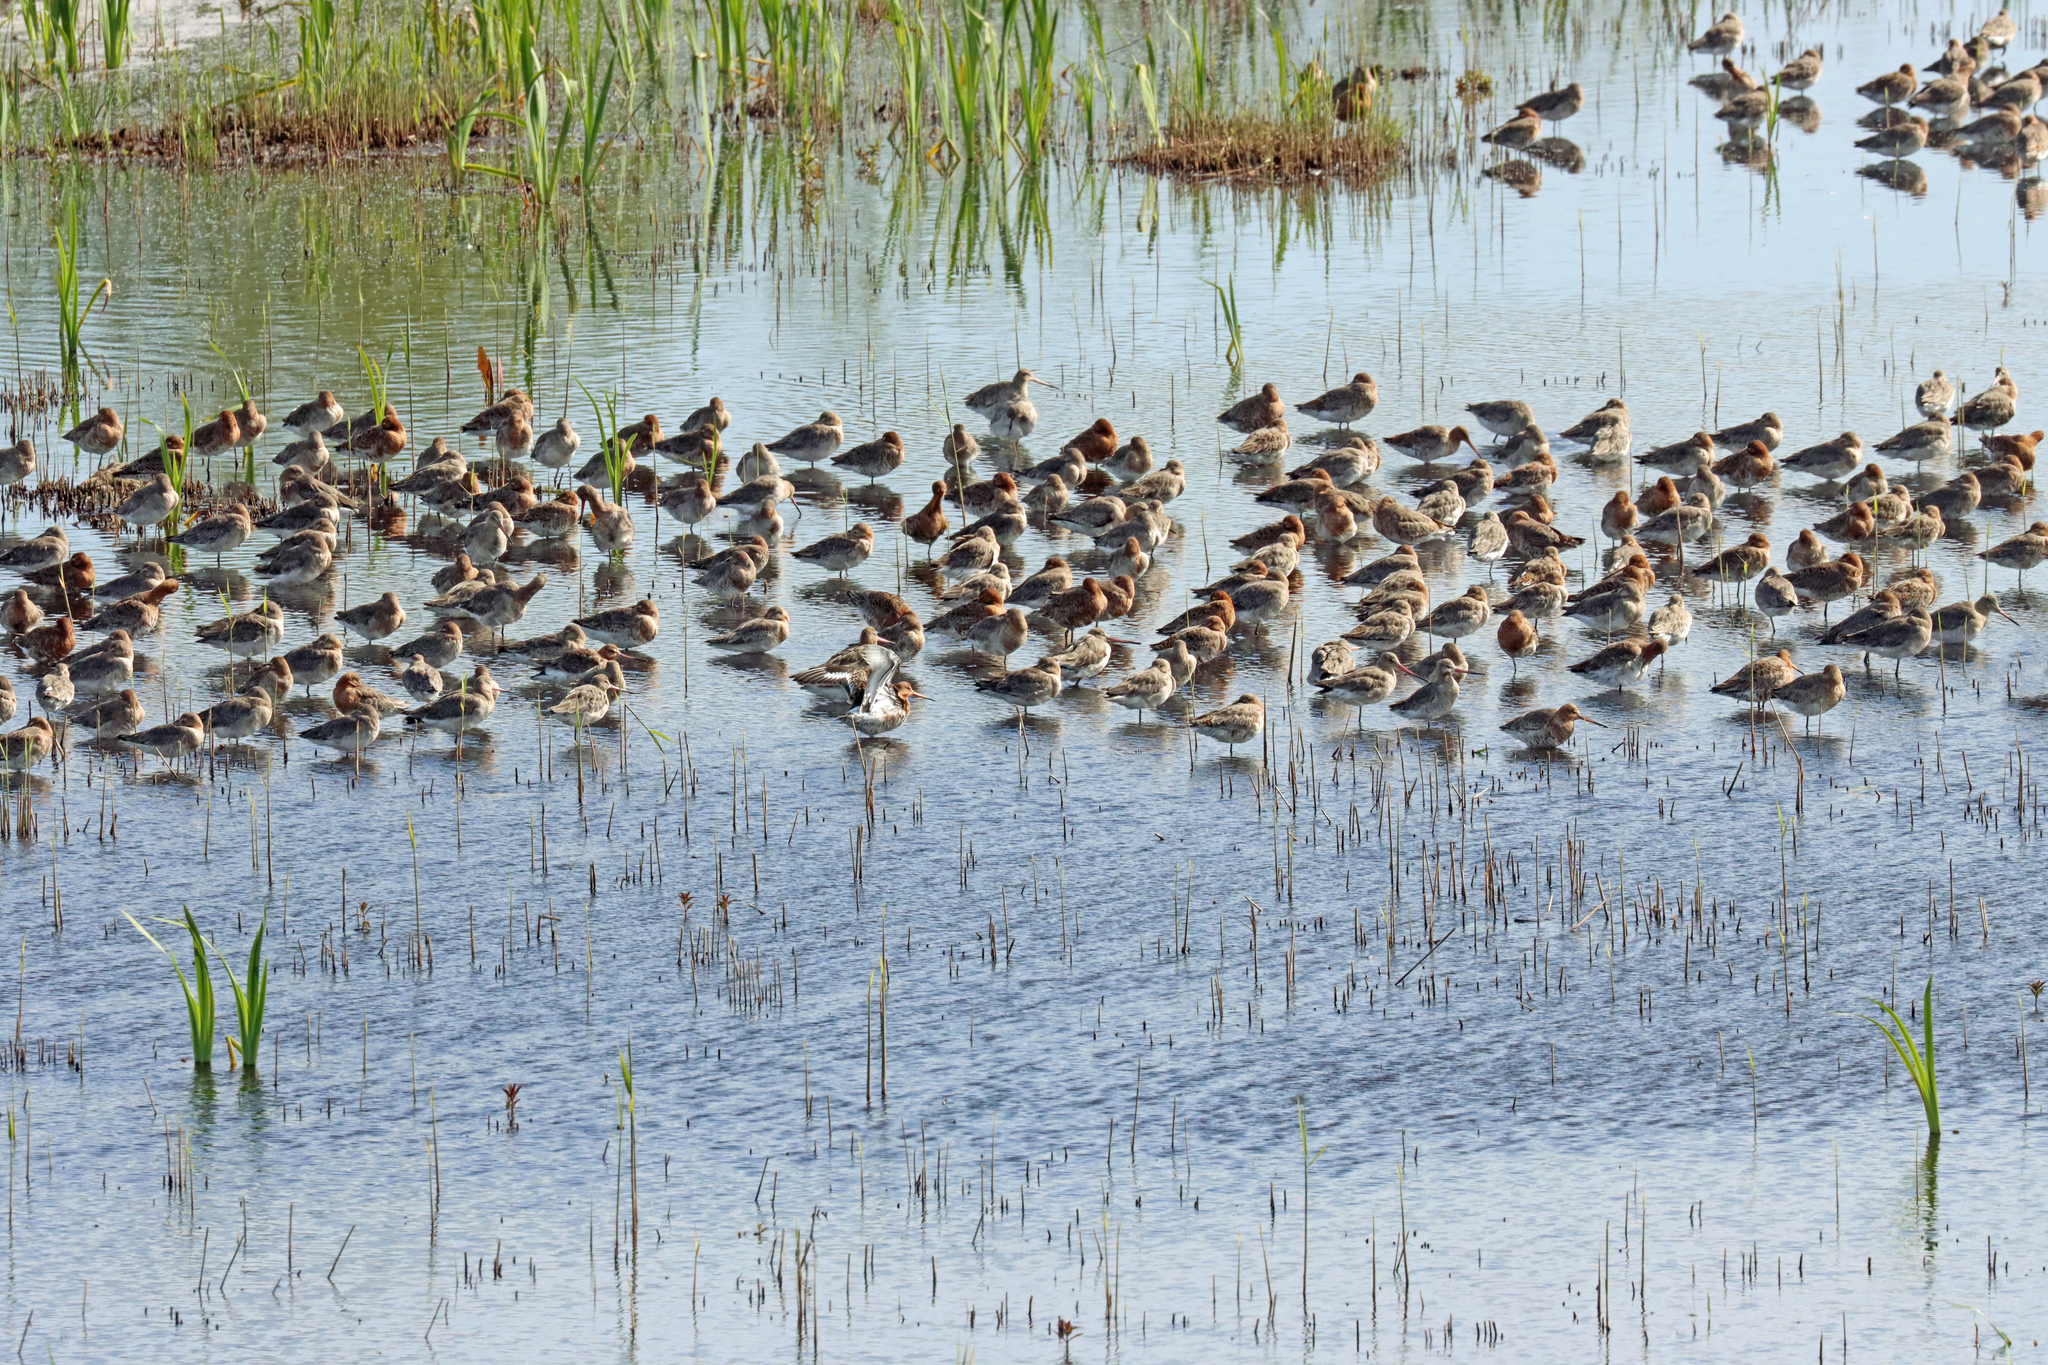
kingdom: Animalia
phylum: Chordata
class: Aves
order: Charadriiformes
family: Scolopacidae
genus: Limosa
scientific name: Limosa limosa
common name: Black-tailed godwit
